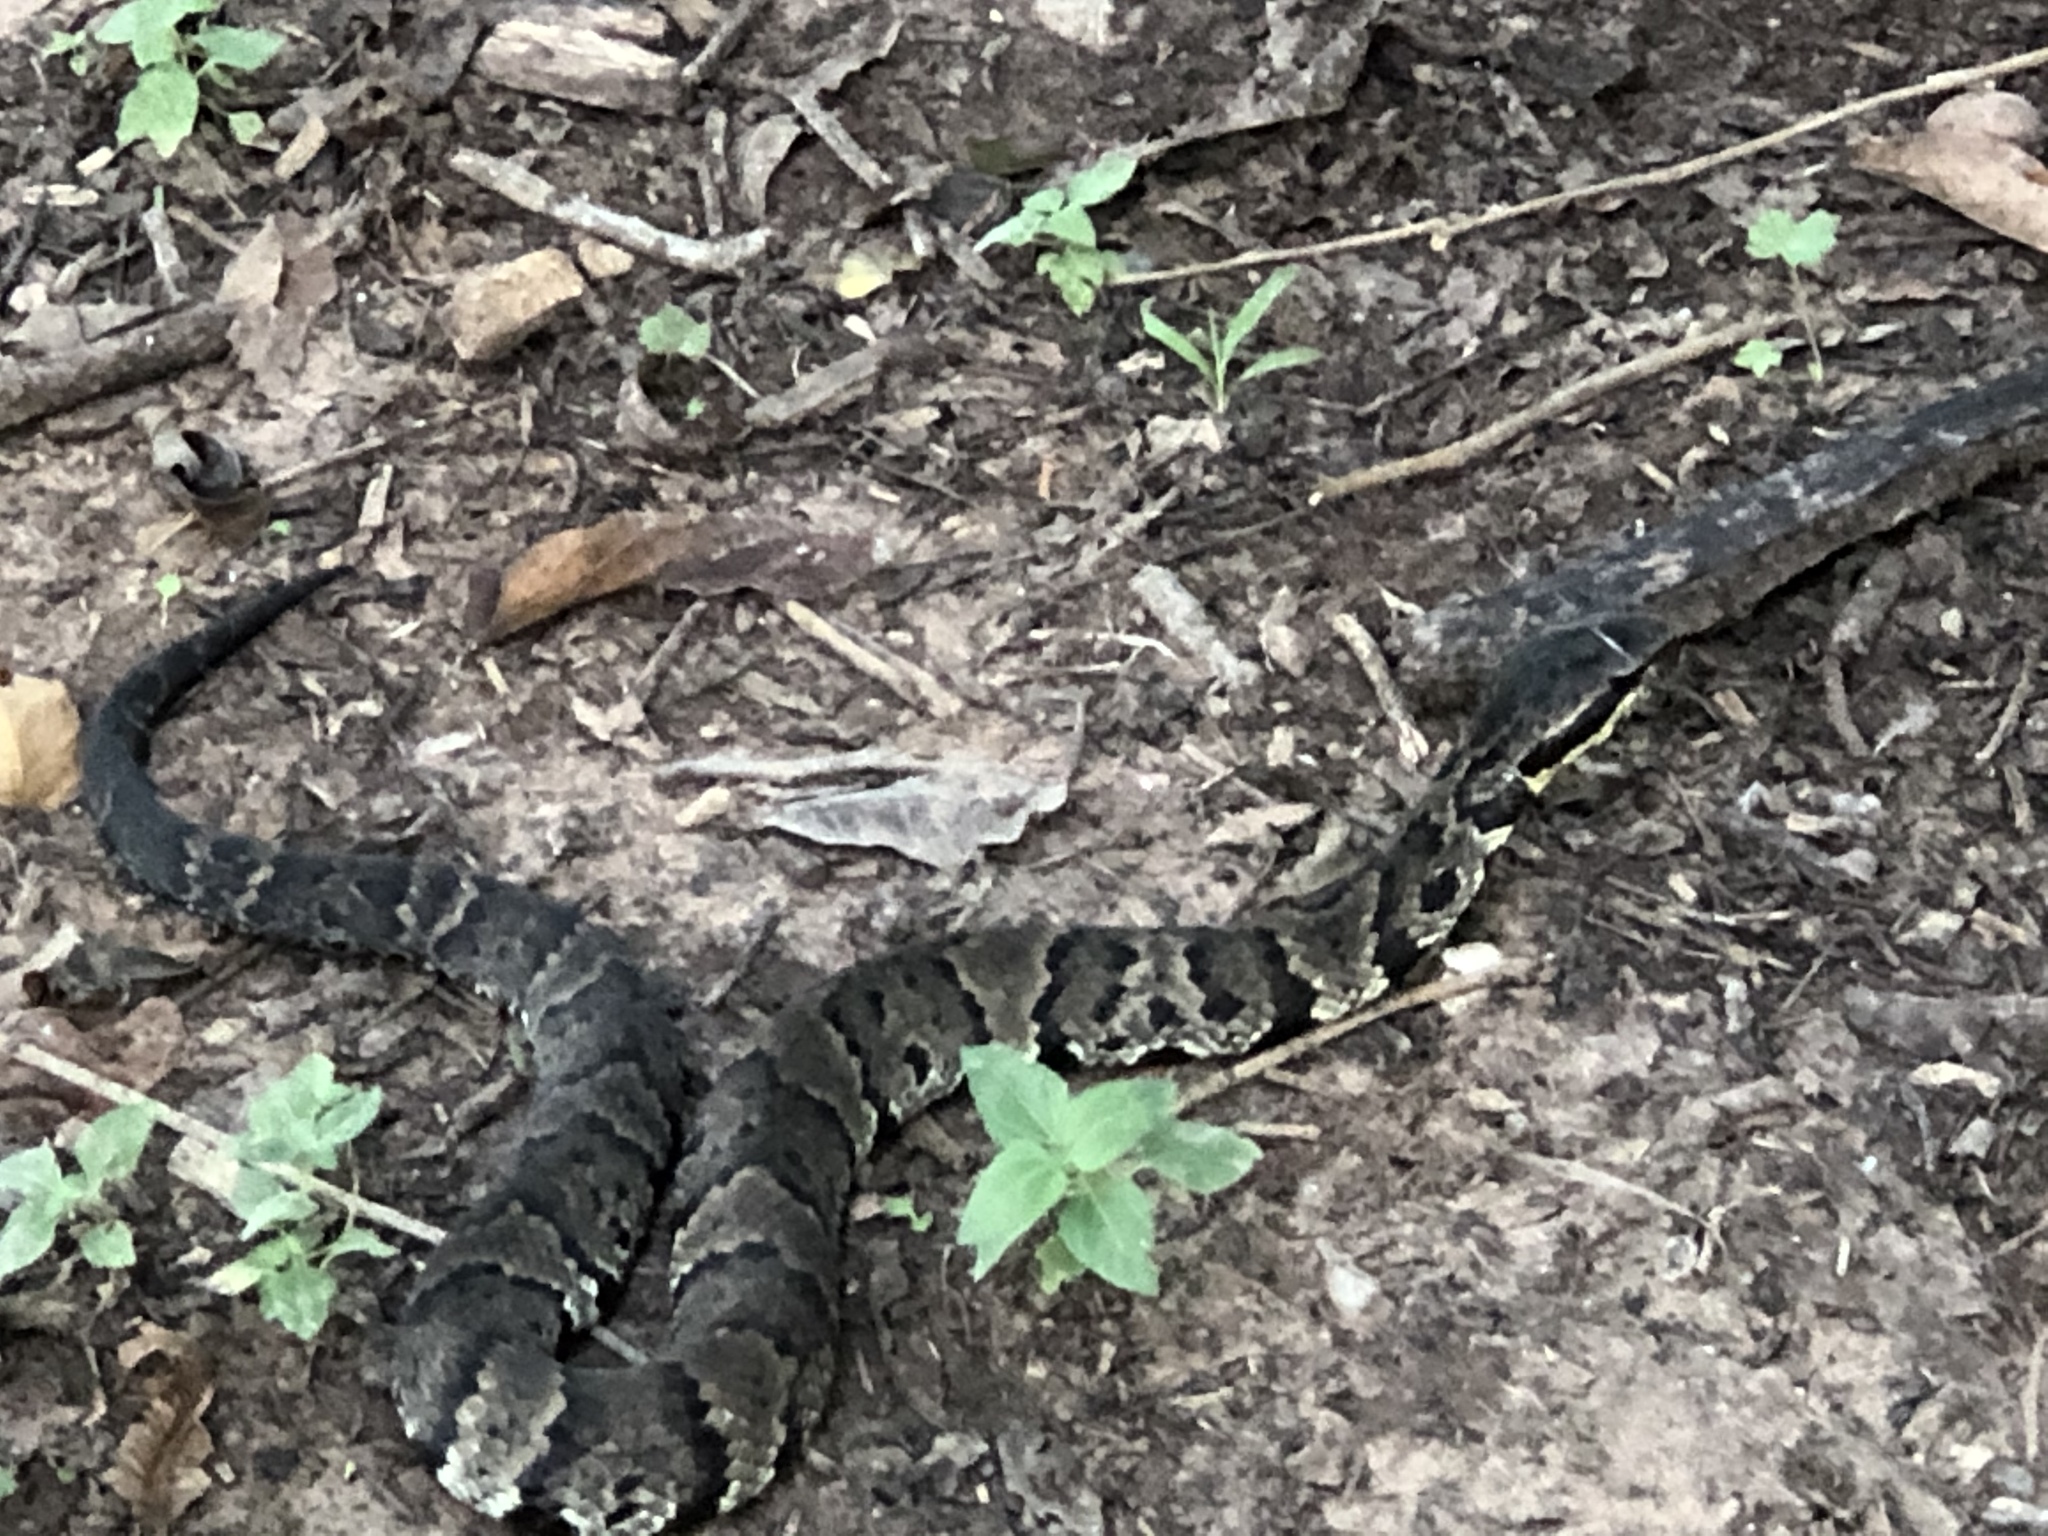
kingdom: Animalia
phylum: Chordata
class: Squamata
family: Viperidae
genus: Agkistrodon
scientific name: Agkistrodon piscivorus
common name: Cottonmouth
